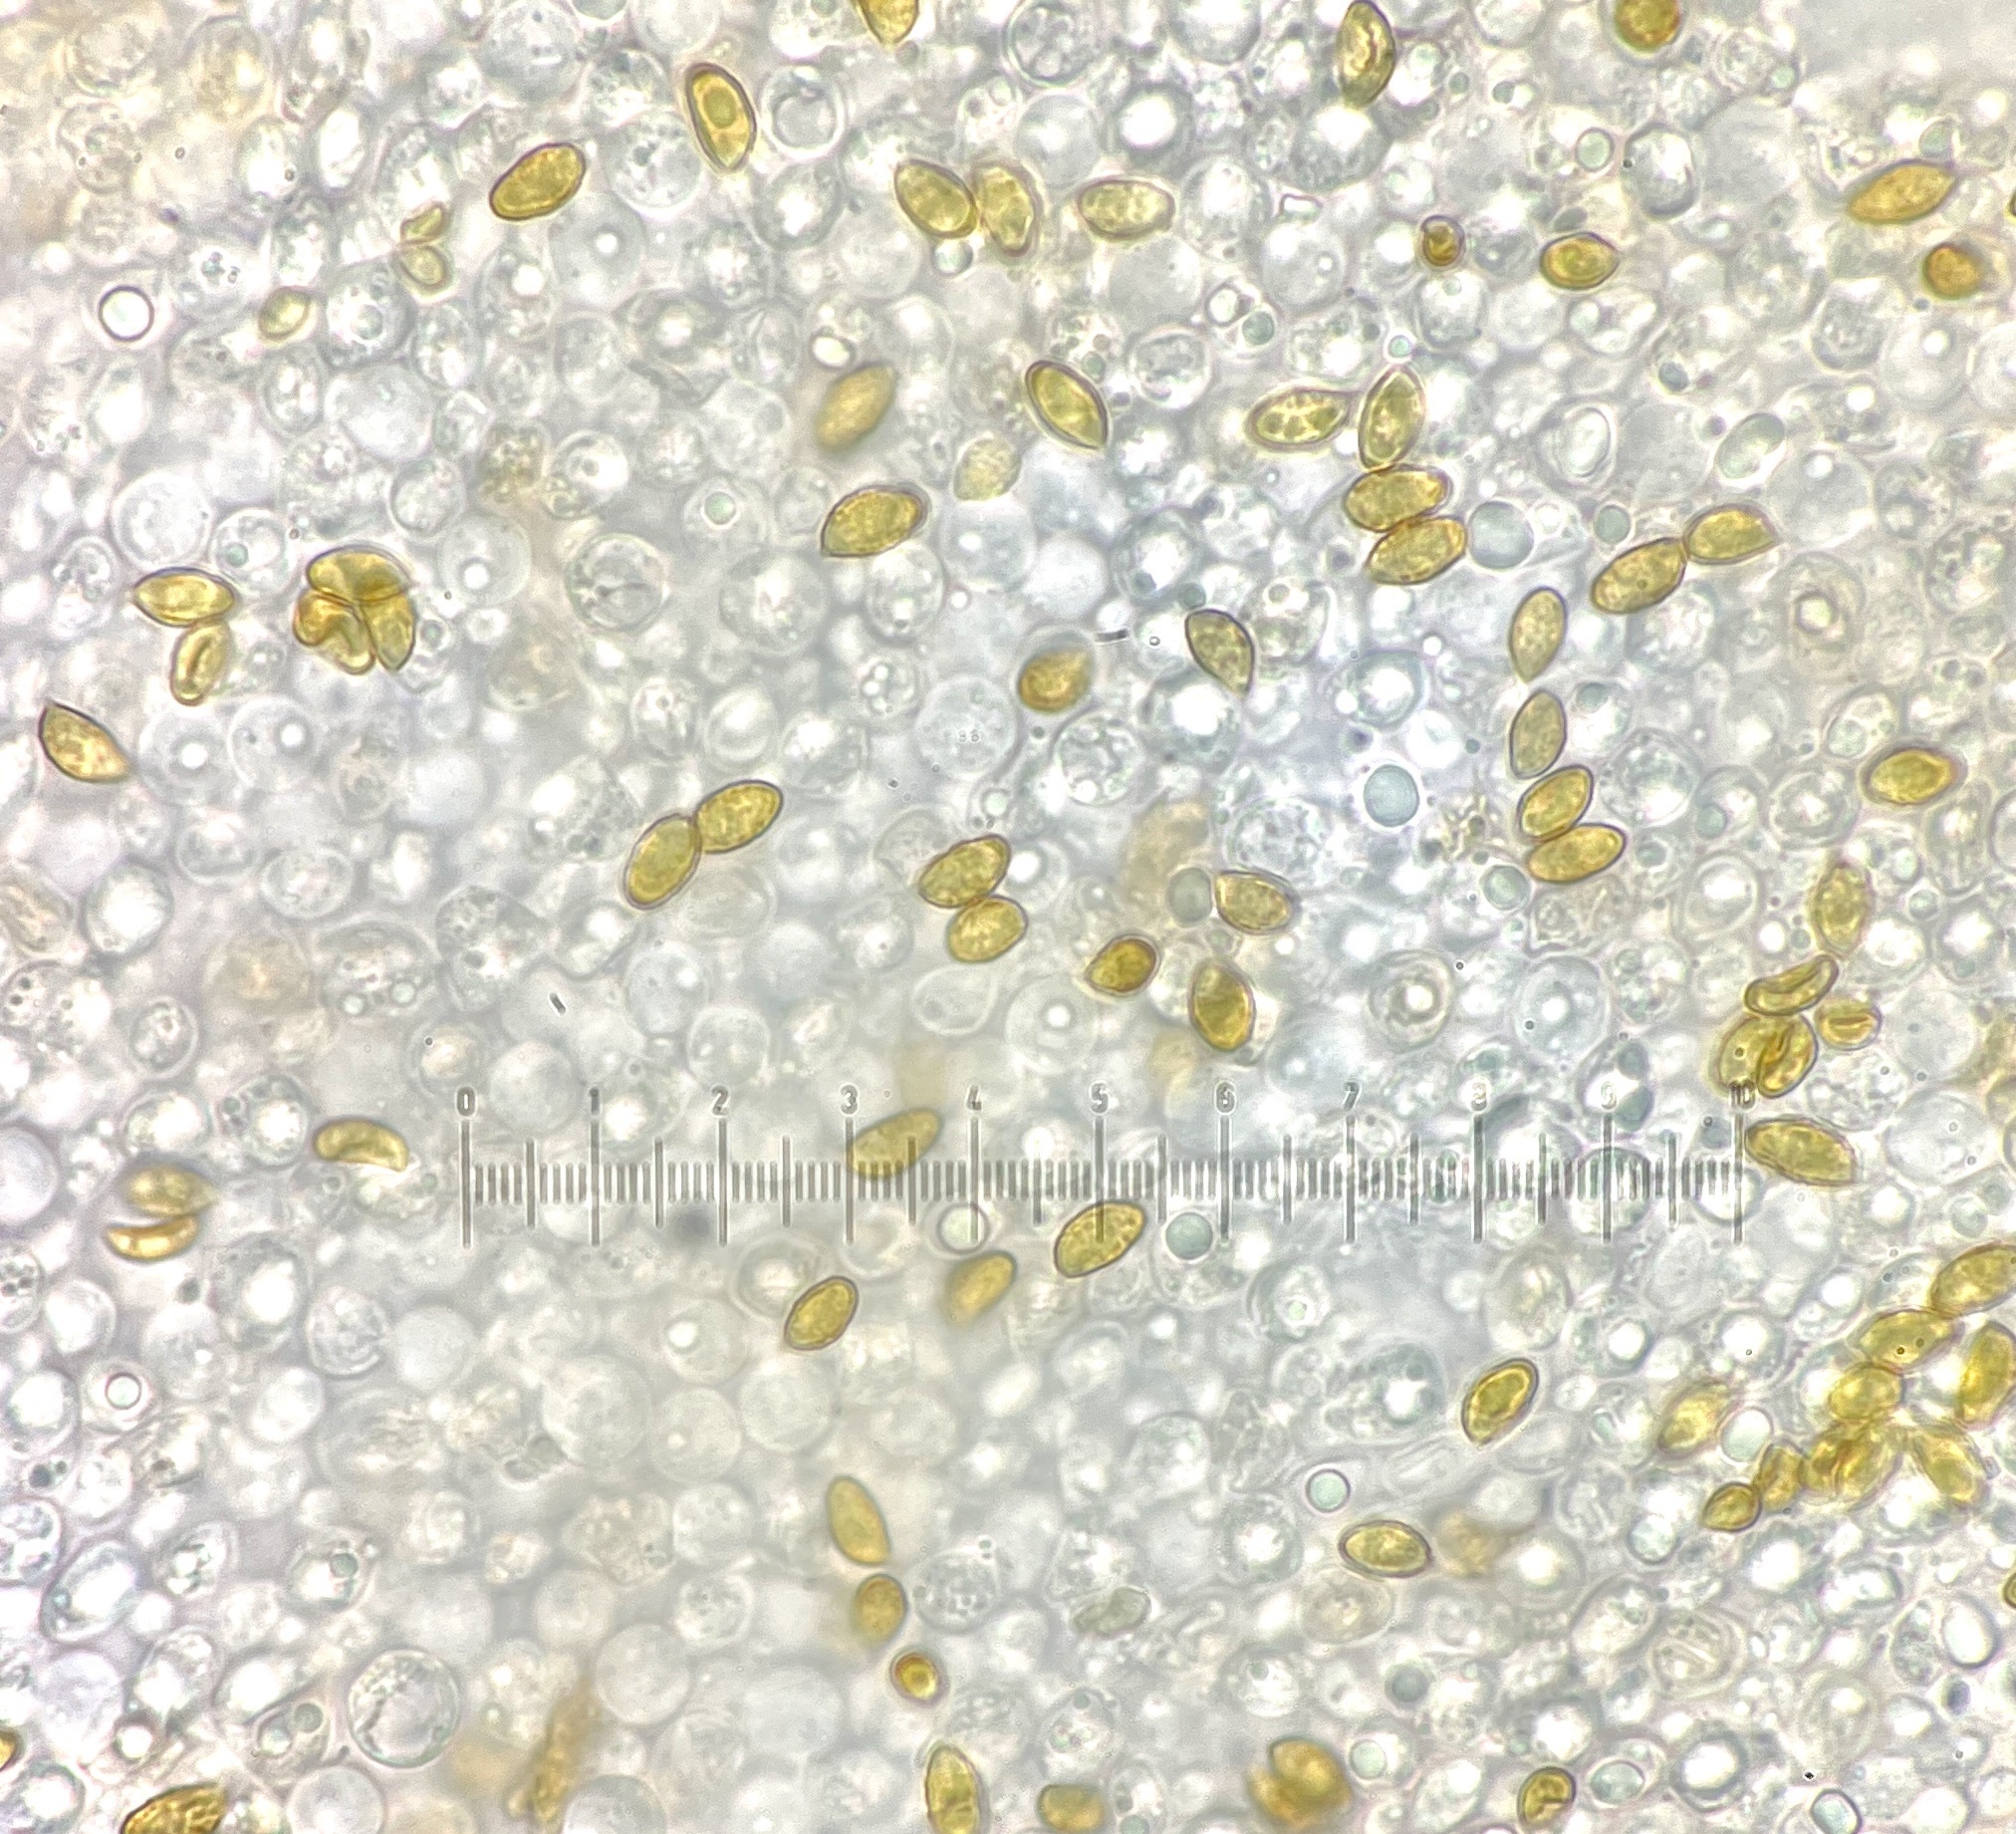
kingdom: Fungi
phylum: Basidiomycota
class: Agaricomycetes
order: Agaricales
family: Cortinariaceae
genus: Cortinarius
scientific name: Cortinarius albobrunnescens
